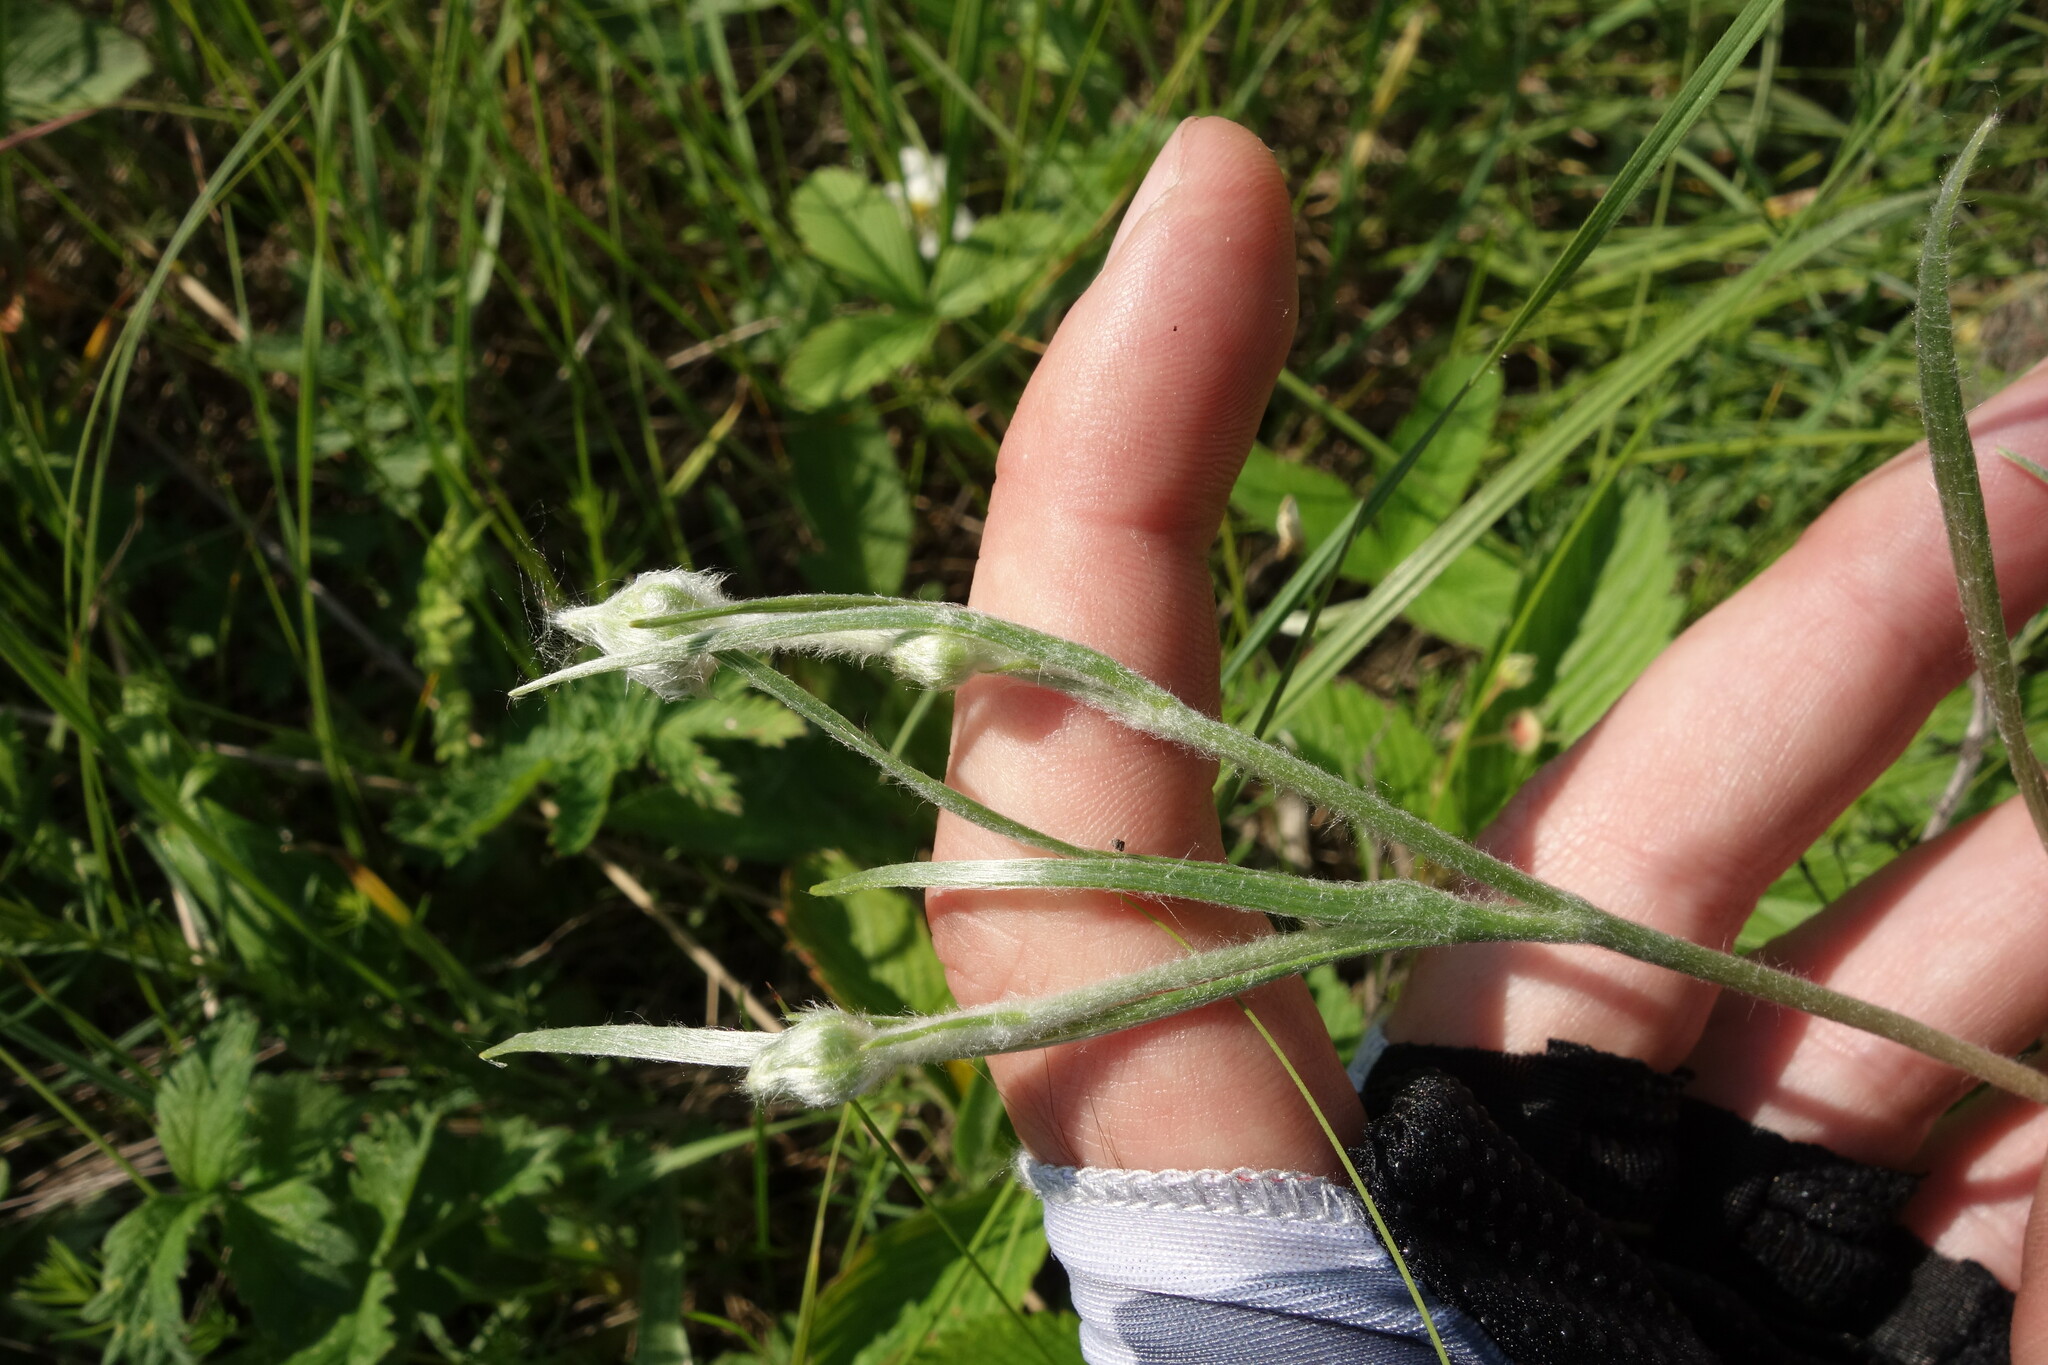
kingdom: Plantae
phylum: Tracheophyta
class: Magnoliopsida
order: Ranunculales
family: Ranunculaceae
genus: Ranunculus
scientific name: Ranunculus illyricus
